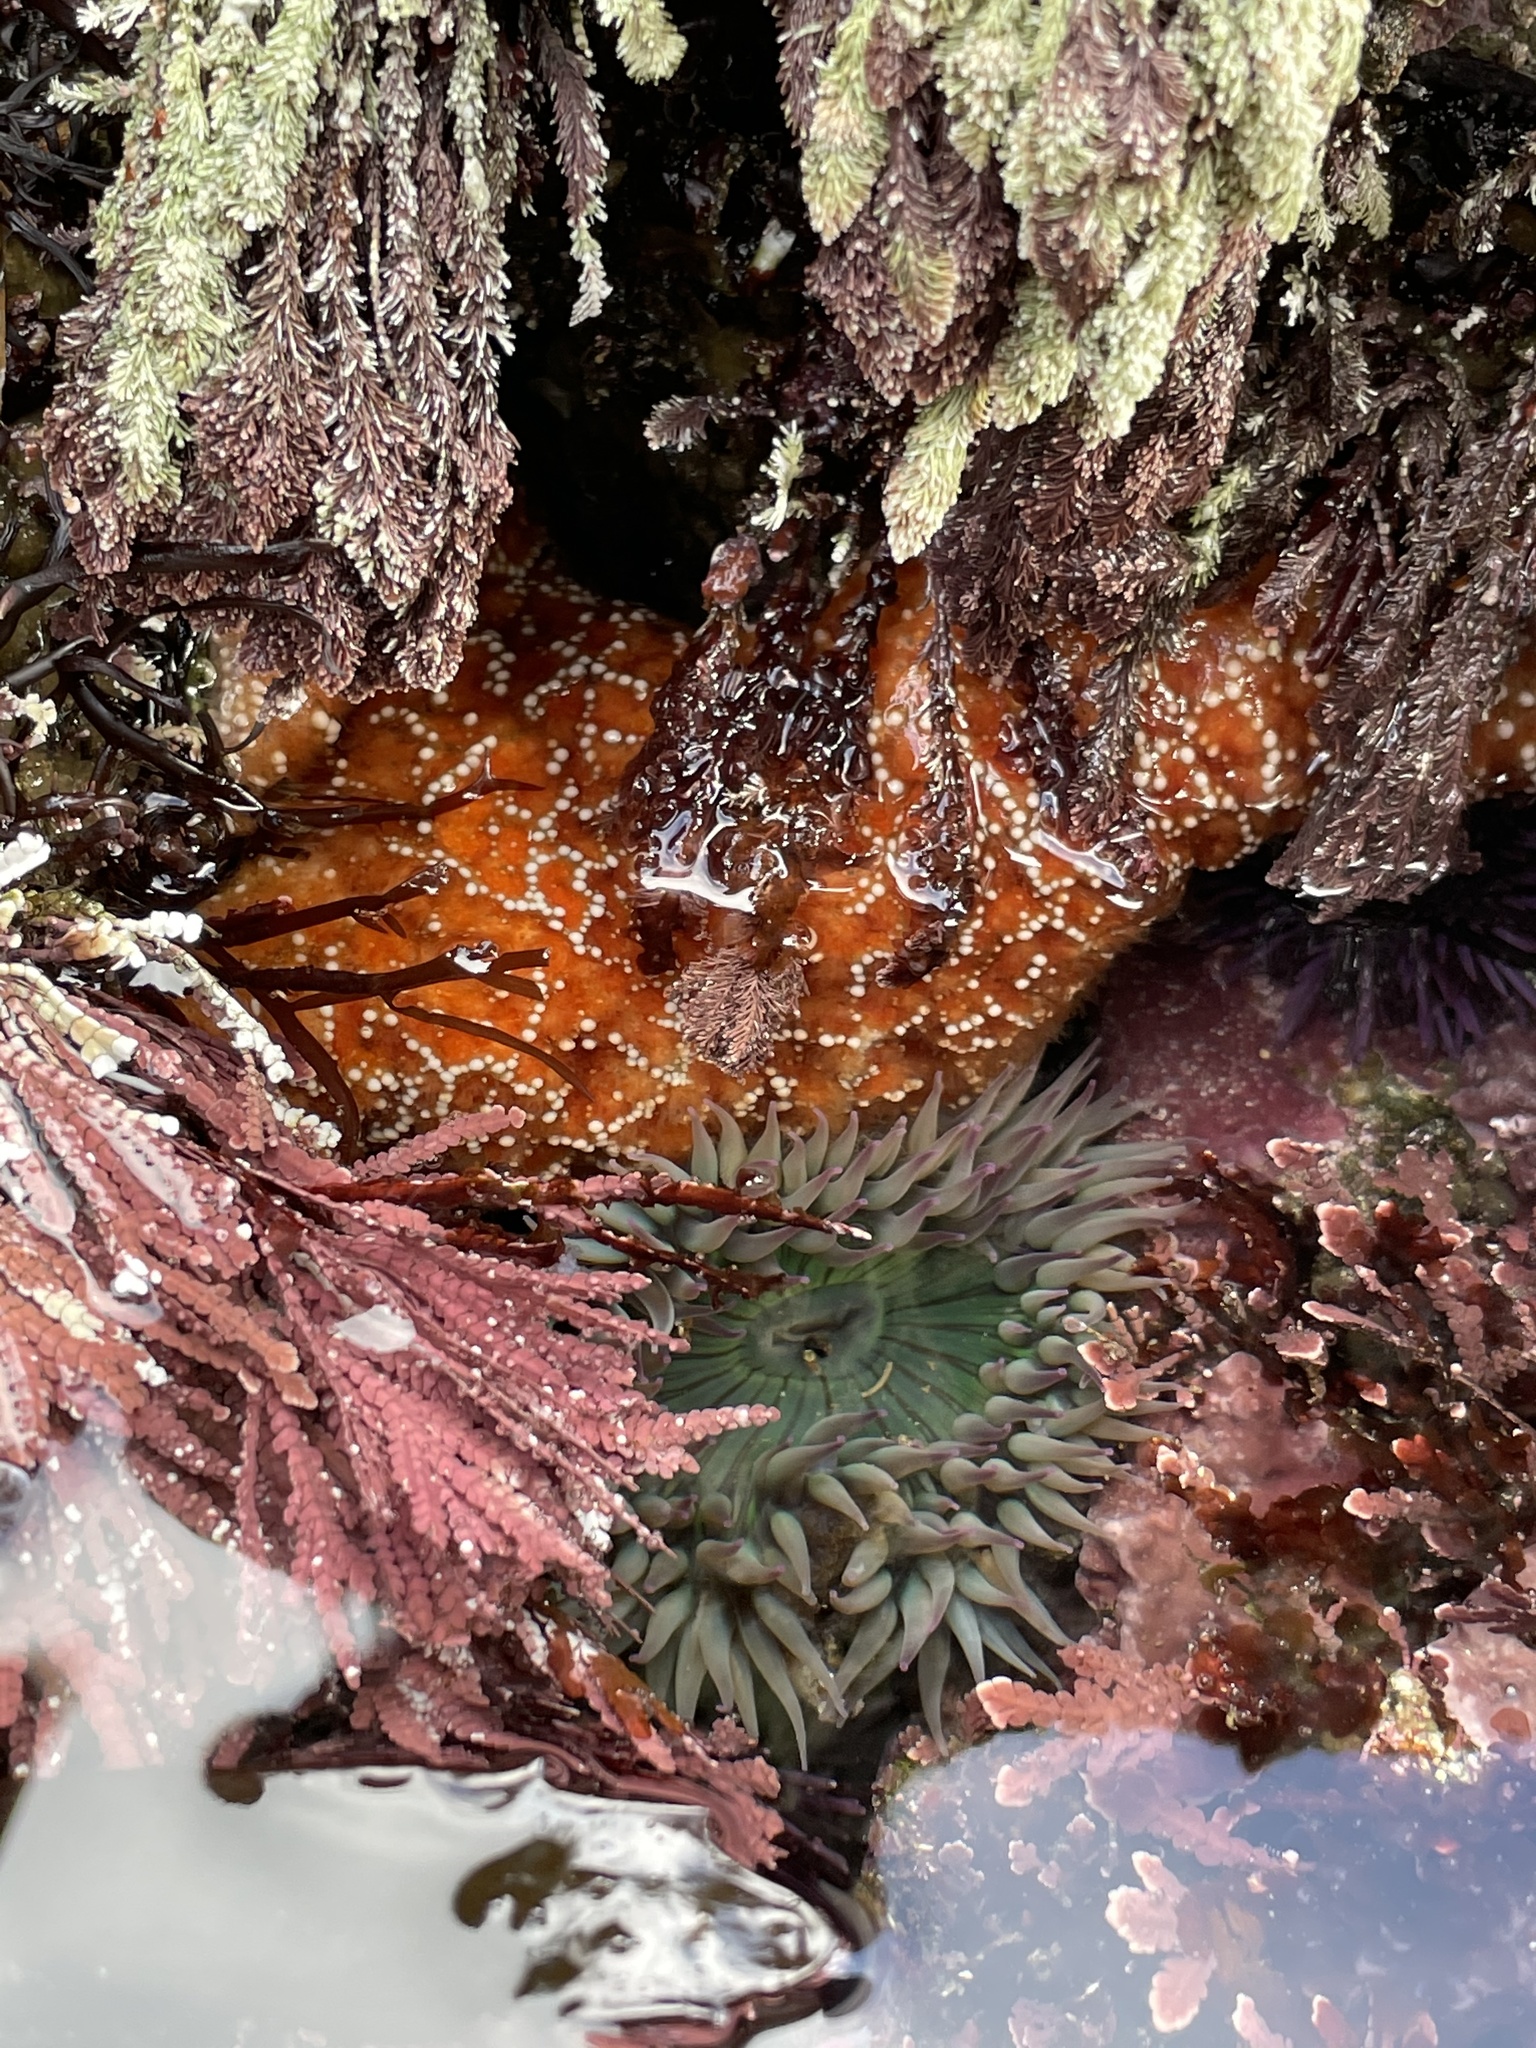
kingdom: Animalia
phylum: Echinodermata
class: Asteroidea
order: Forcipulatida
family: Asteriidae
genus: Pisaster
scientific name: Pisaster ochraceus
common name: Ochre stars
